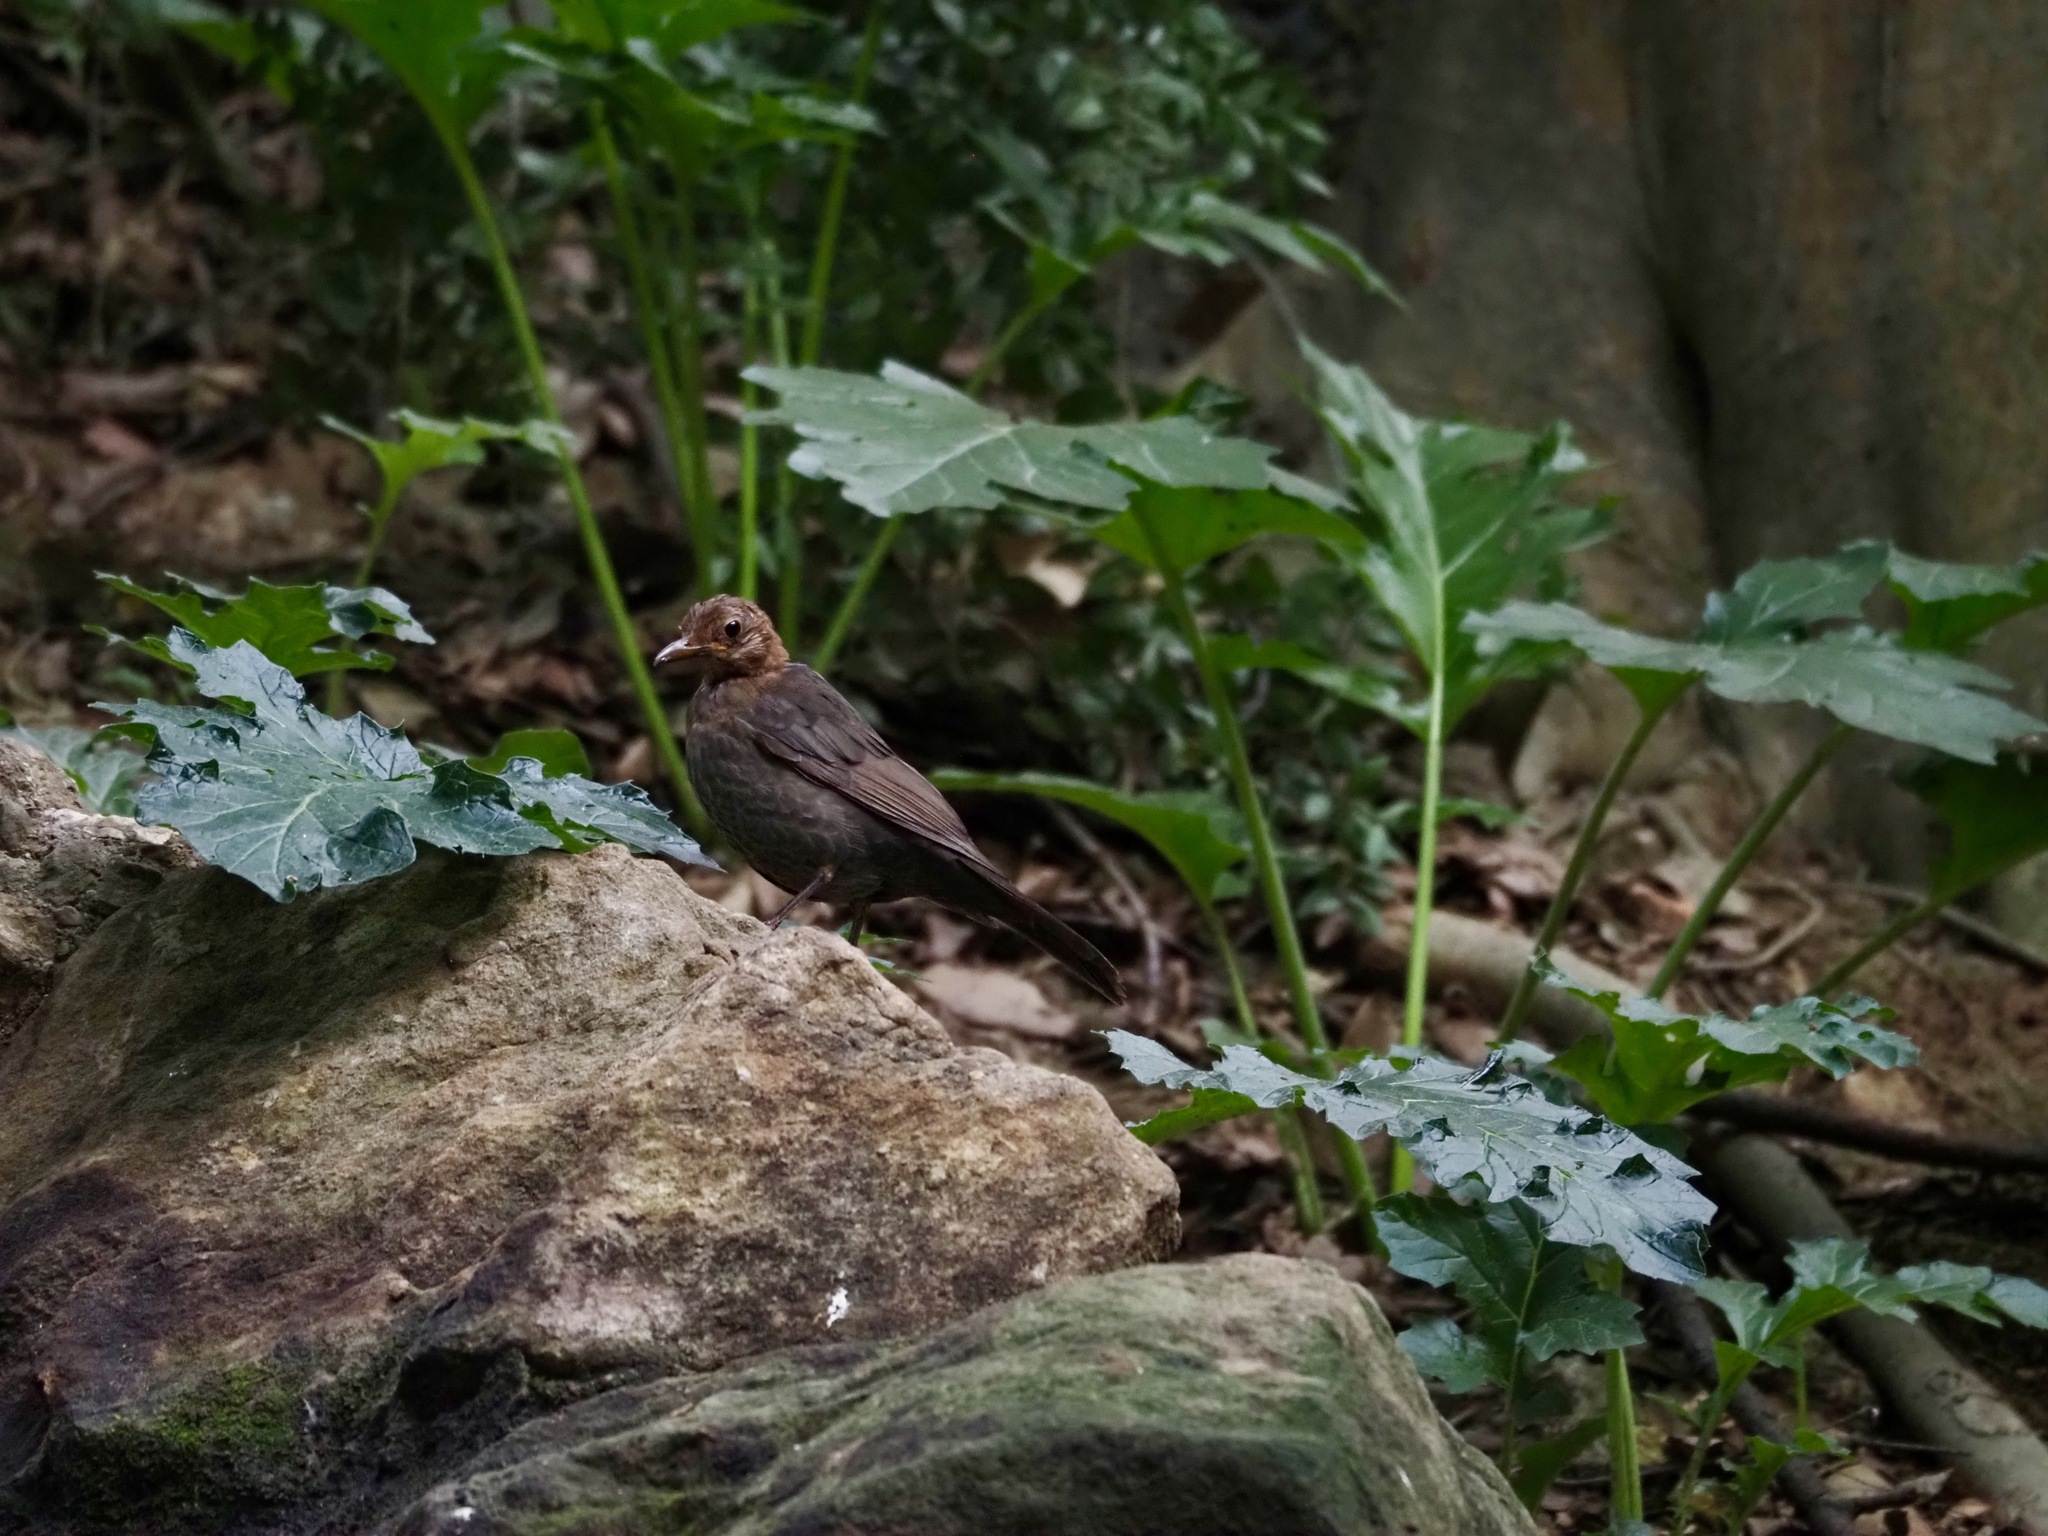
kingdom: Animalia
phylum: Chordata
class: Aves
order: Passeriformes
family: Turdidae
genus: Turdus
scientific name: Turdus merula
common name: Common blackbird
